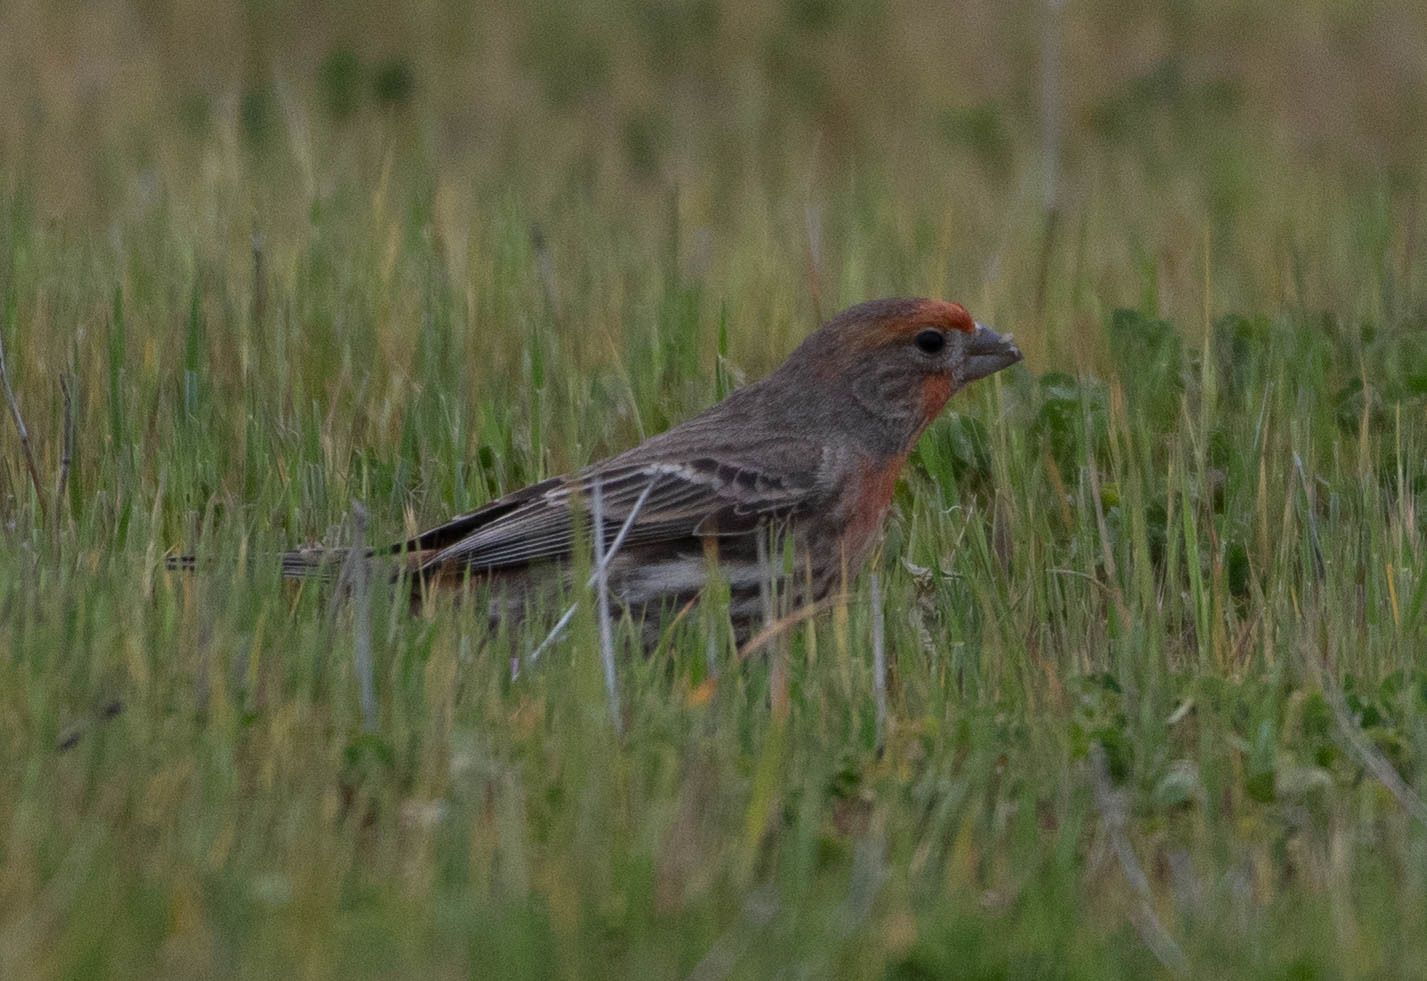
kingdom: Animalia
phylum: Chordata
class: Aves
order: Passeriformes
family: Fringillidae
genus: Haemorhous
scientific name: Haemorhous mexicanus
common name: House finch
